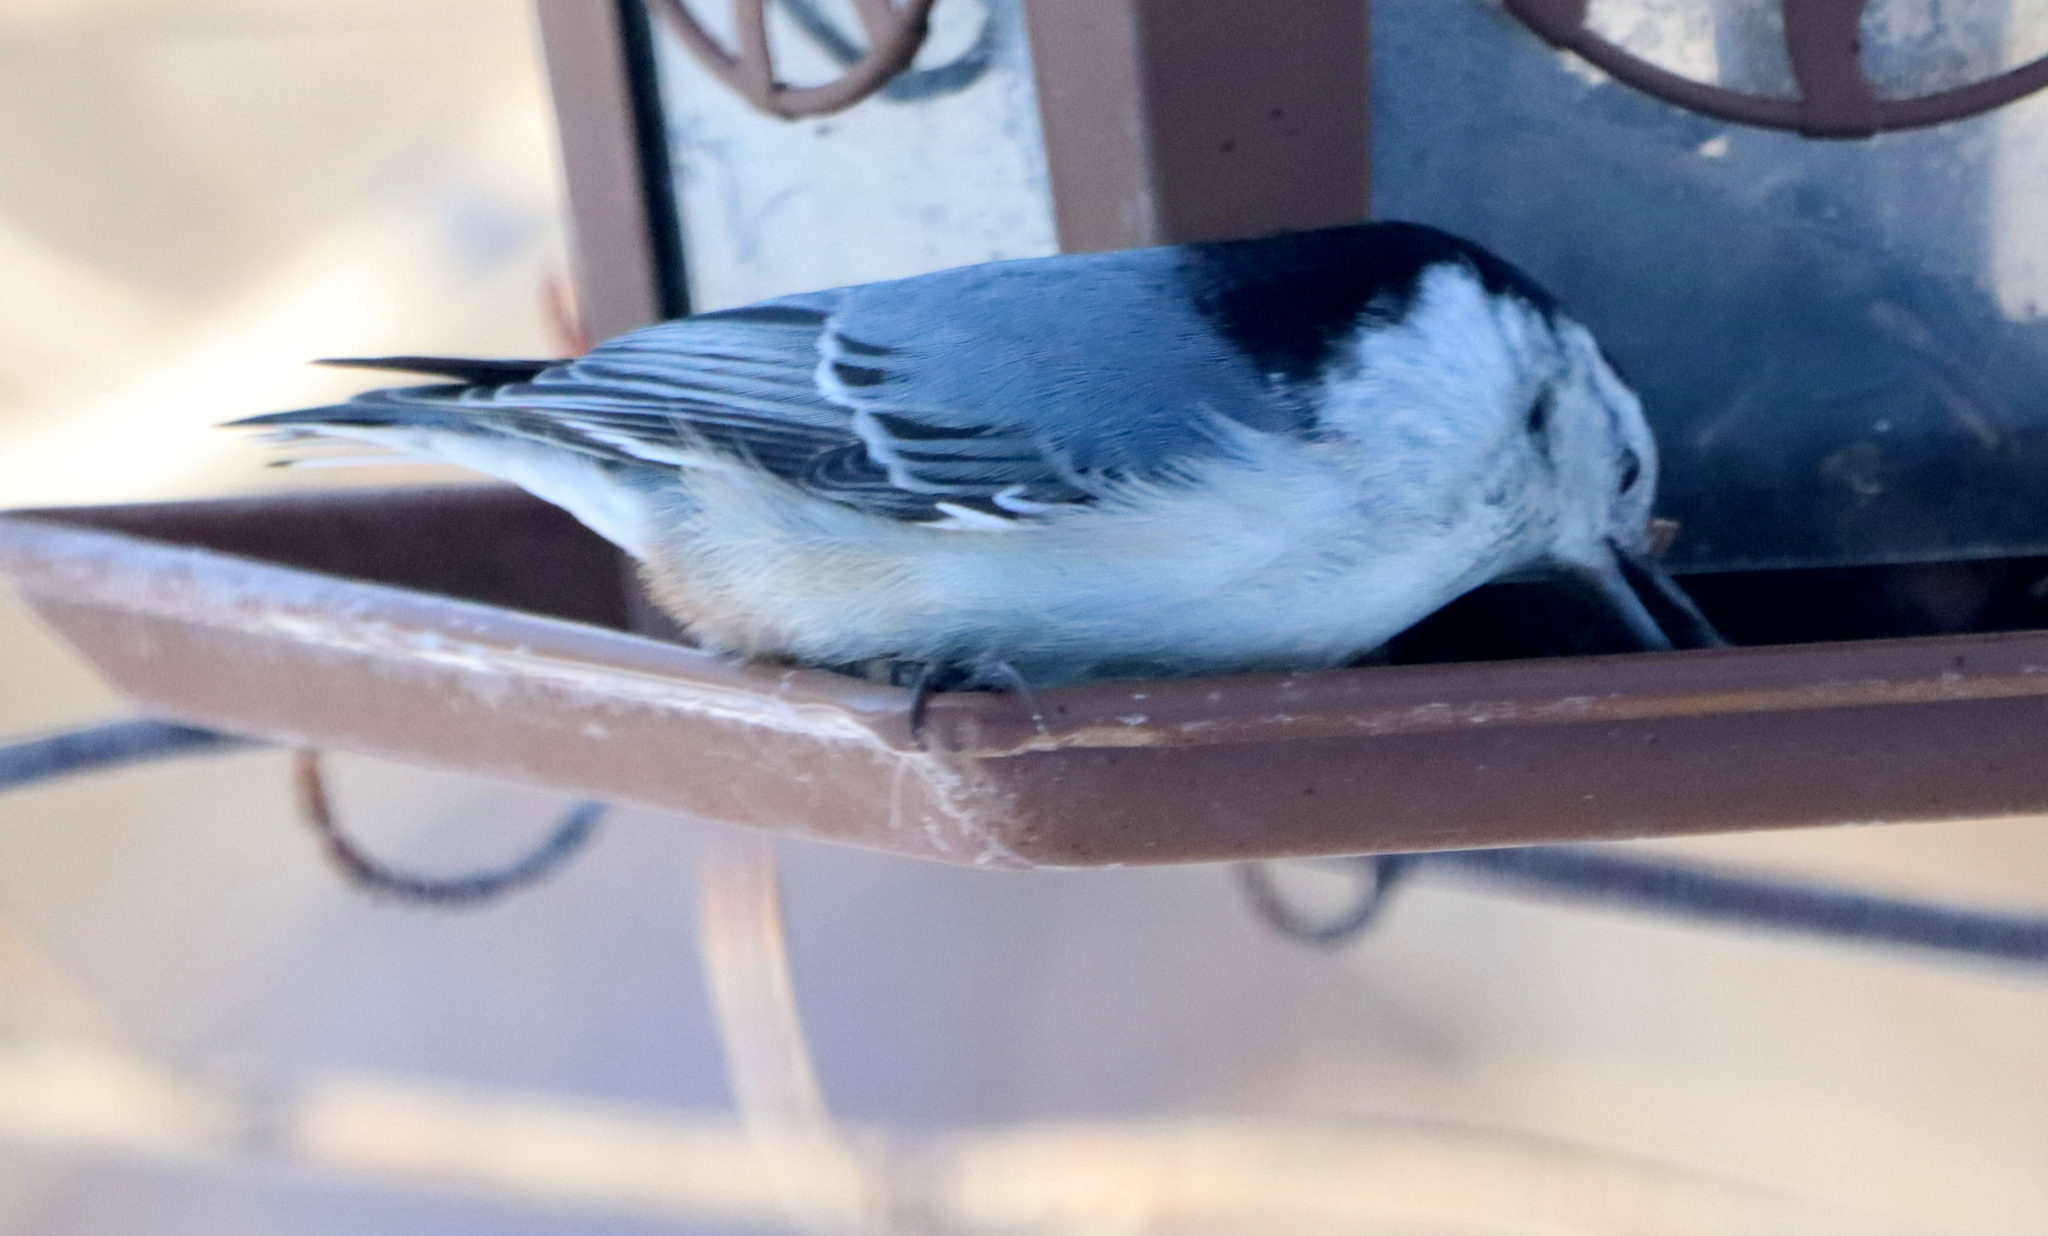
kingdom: Animalia
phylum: Chordata
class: Aves
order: Passeriformes
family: Sittidae
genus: Sitta
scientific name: Sitta carolinensis
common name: White-breasted nuthatch
